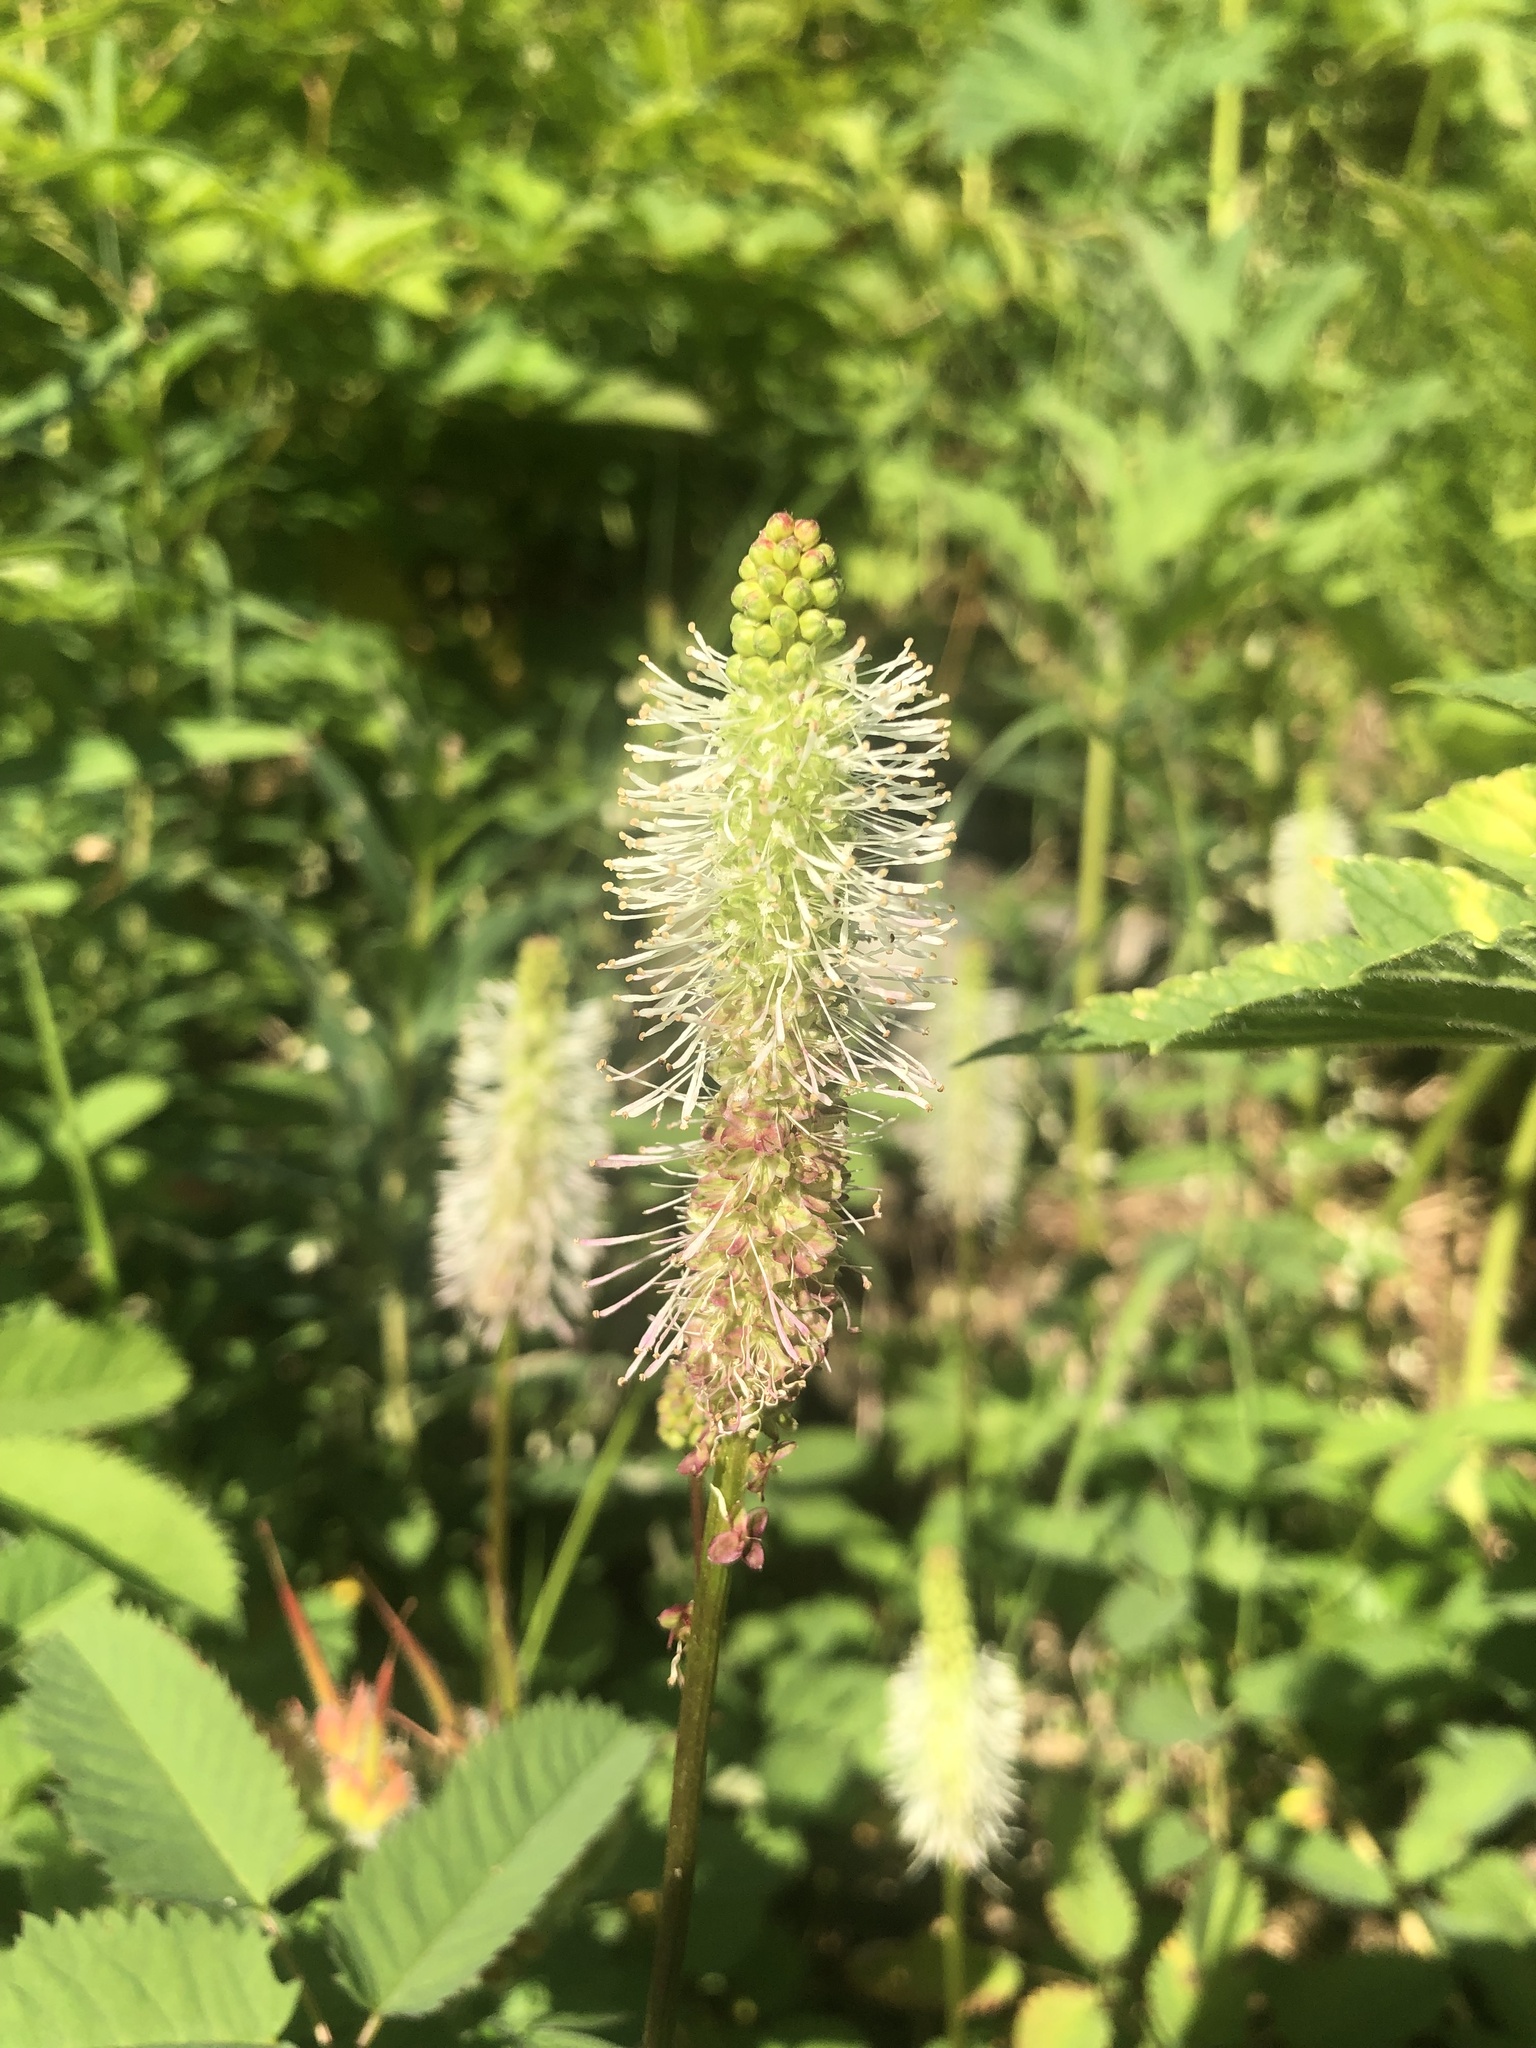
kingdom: Plantae
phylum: Tracheophyta
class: Magnoliopsida
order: Rosales
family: Rosaceae
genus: Sanguisorba
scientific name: Sanguisorba stipulata
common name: Sitka burnet
